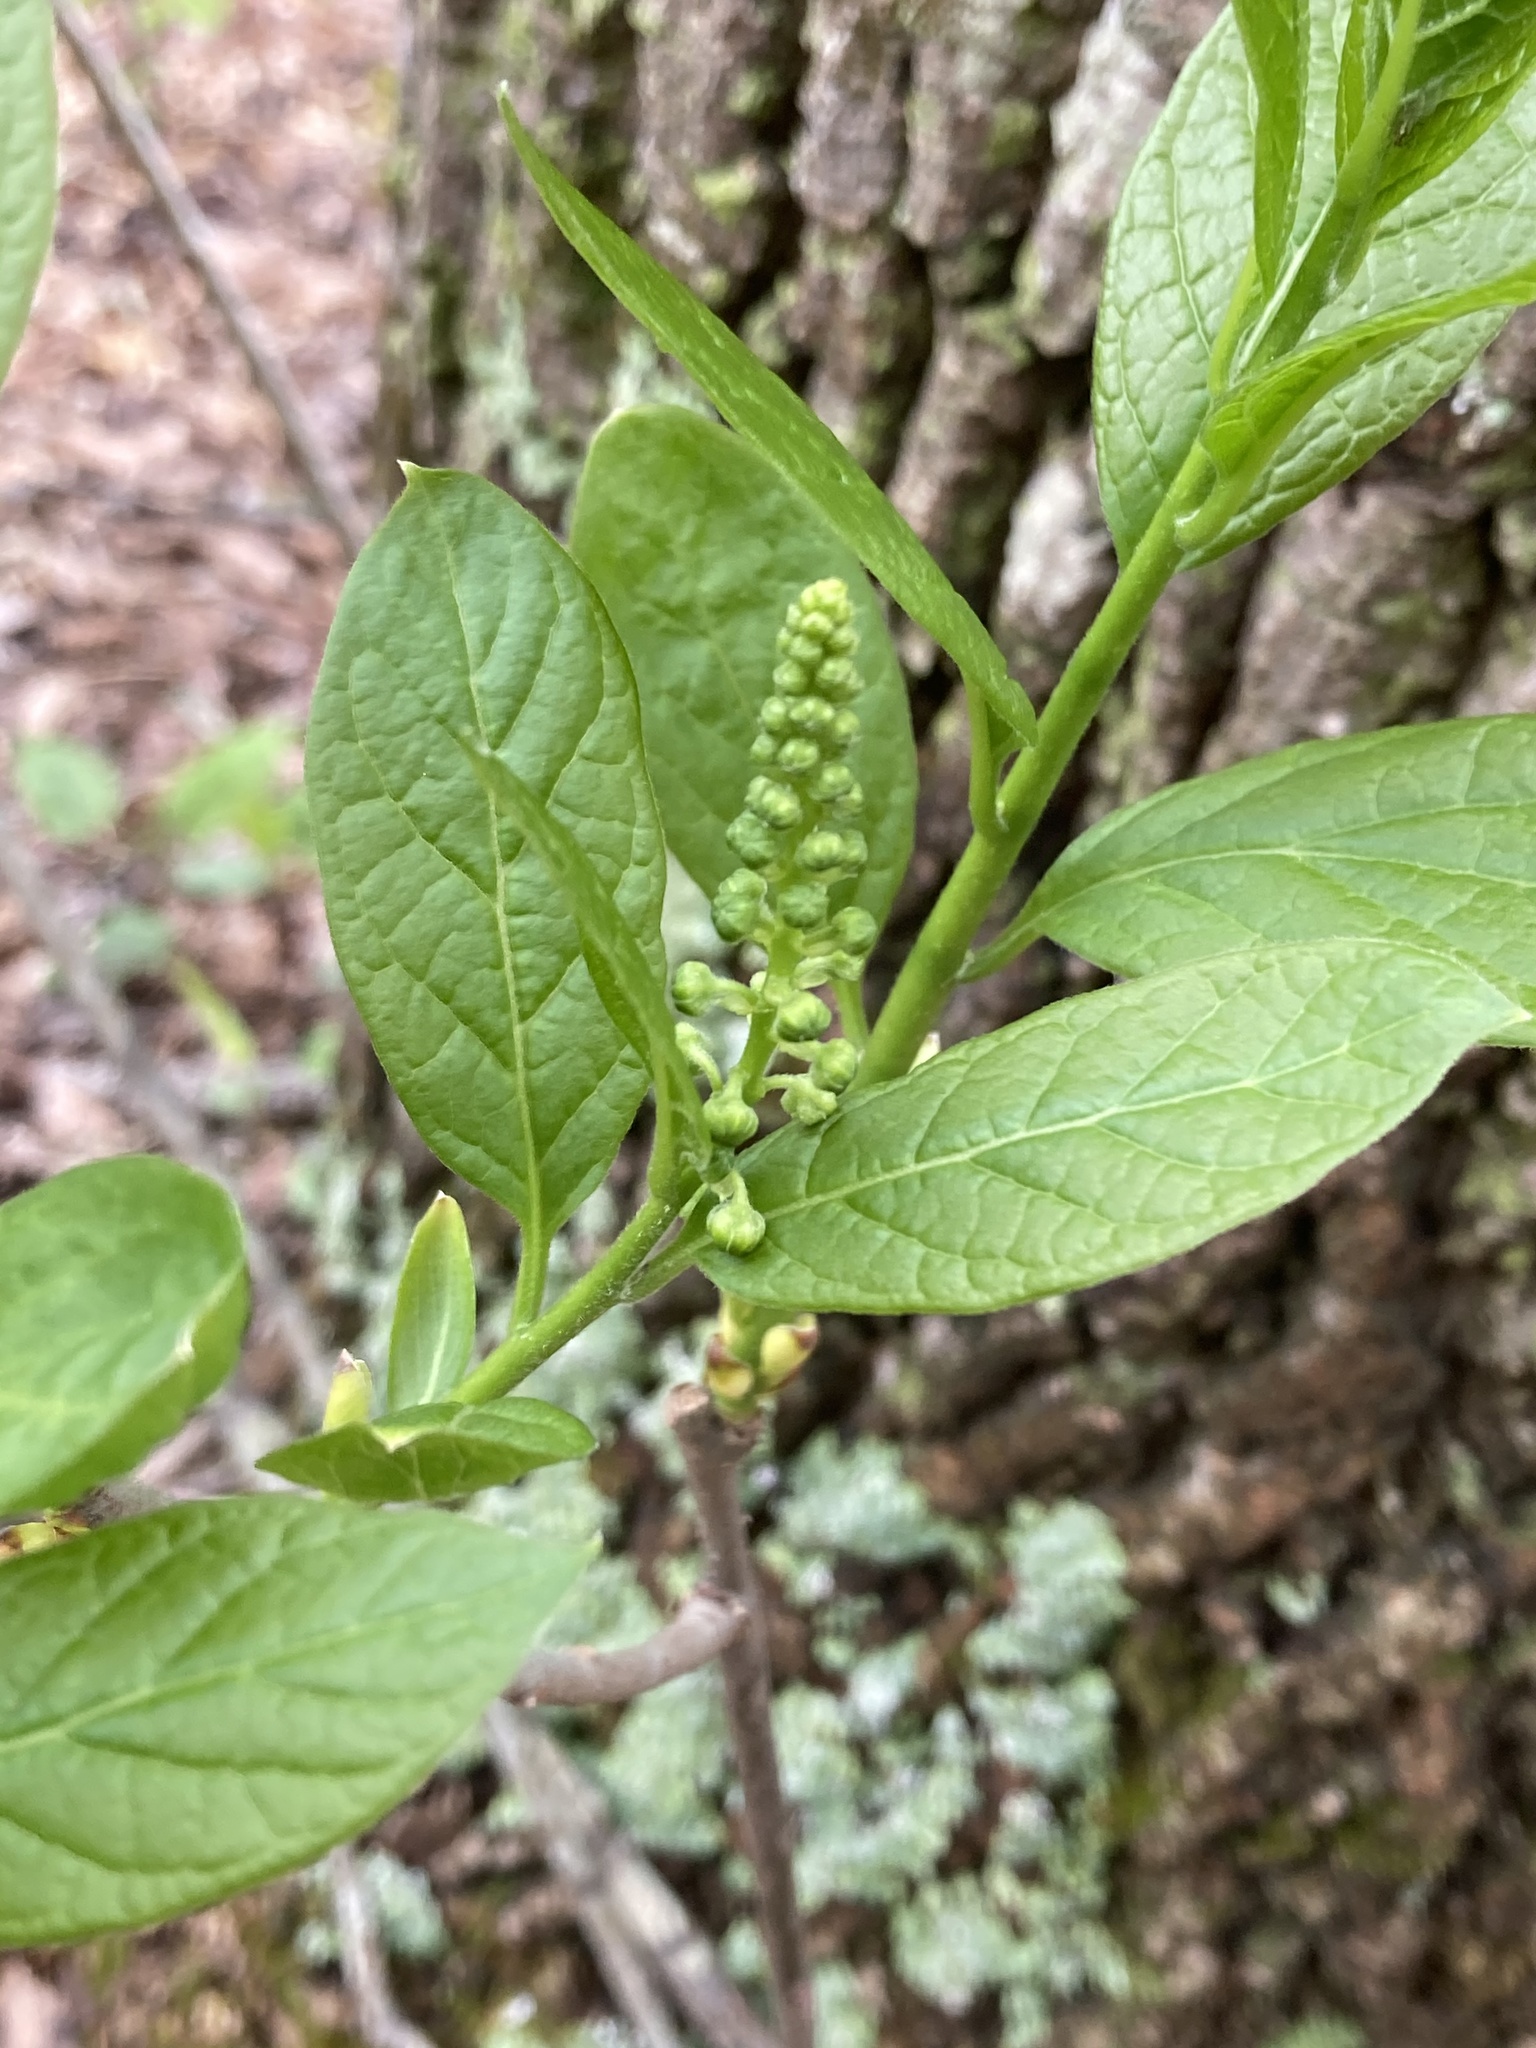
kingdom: Plantae
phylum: Tracheophyta
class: Magnoliopsida
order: Santalales
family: Cervantesiaceae
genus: Pyrularia
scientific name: Pyrularia pubera
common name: Oilnut
